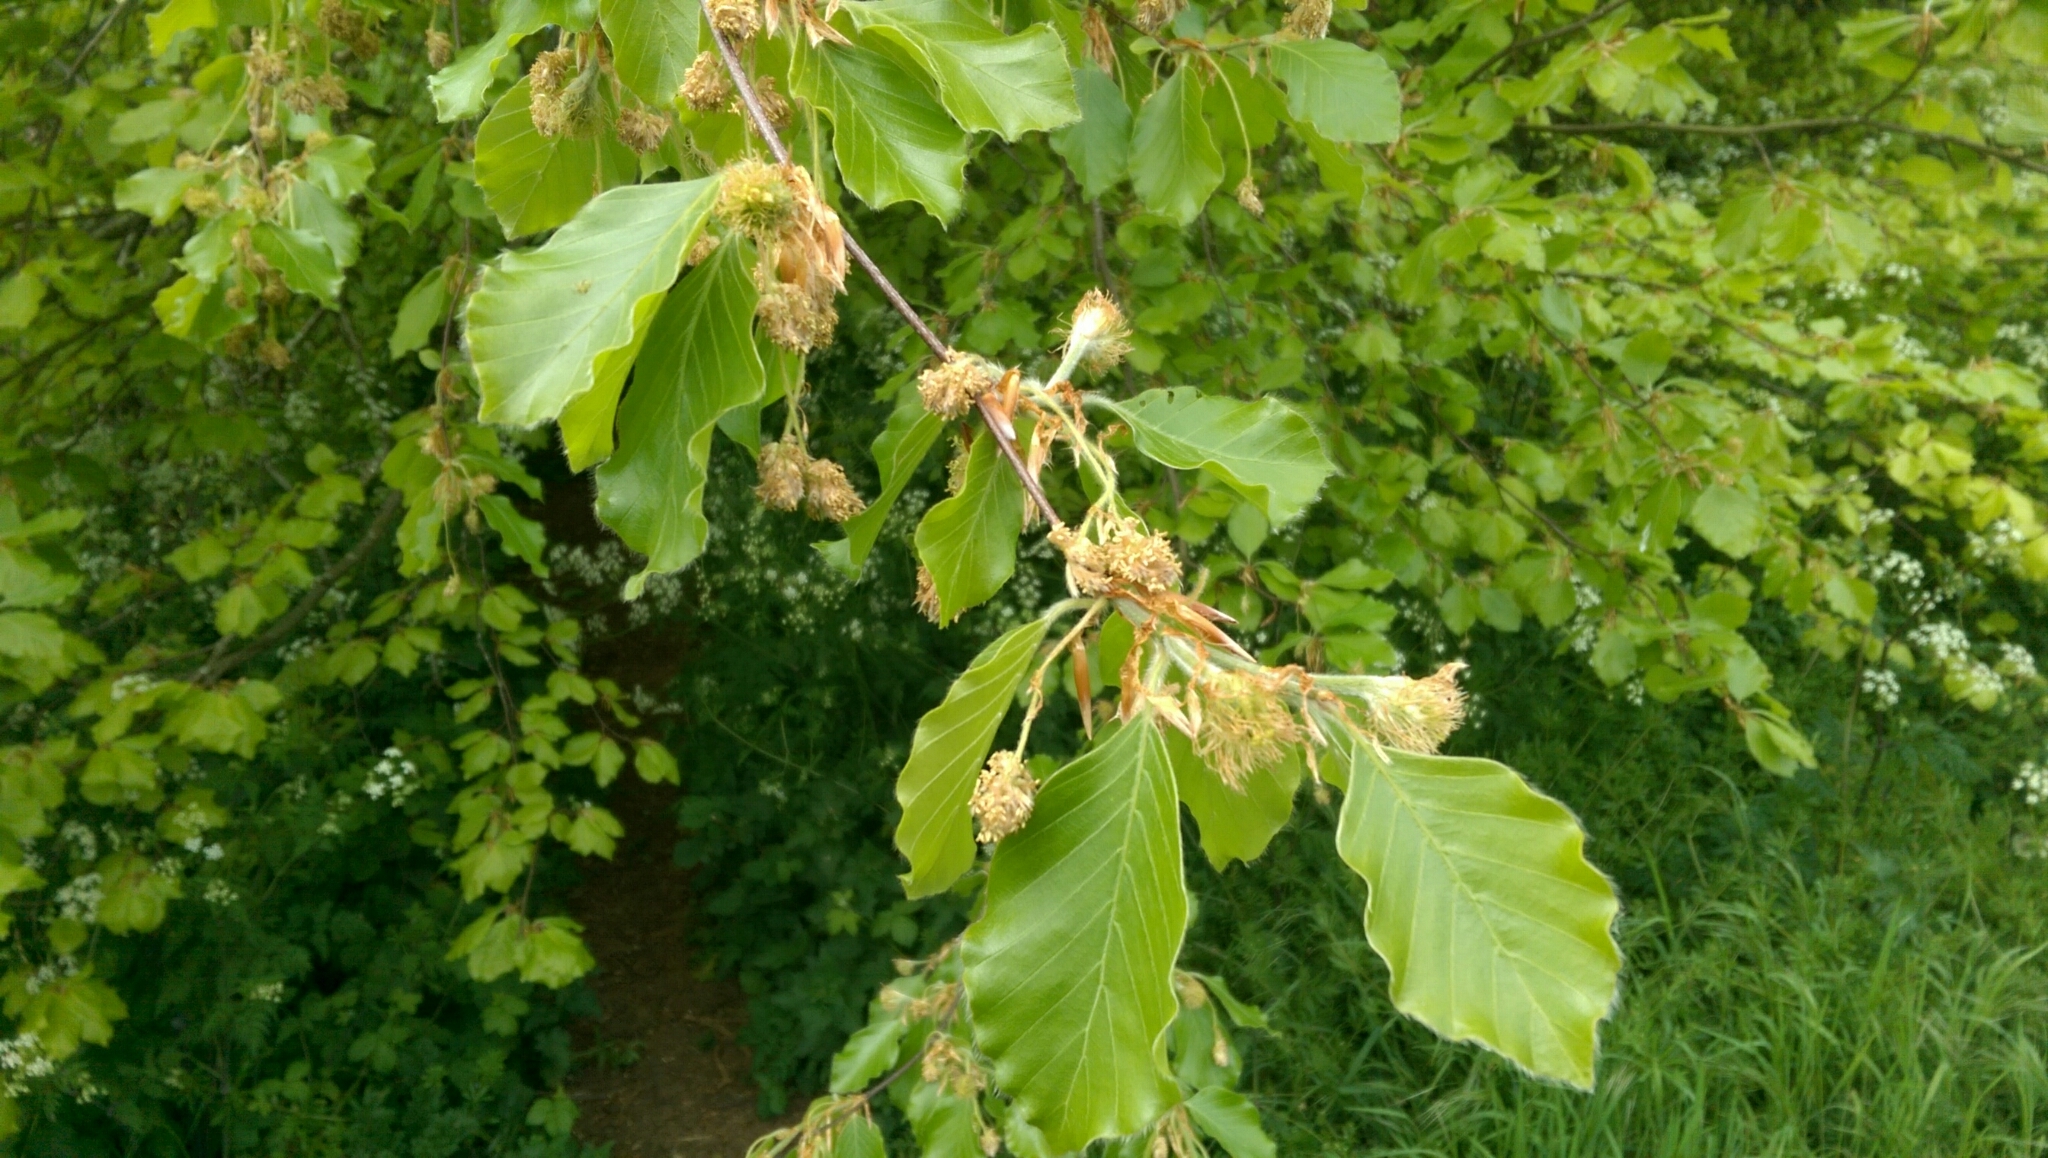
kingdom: Plantae
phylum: Tracheophyta
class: Magnoliopsida
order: Fagales
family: Fagaceae
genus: Fagus
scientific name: Fagus sylvatica
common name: Beech
